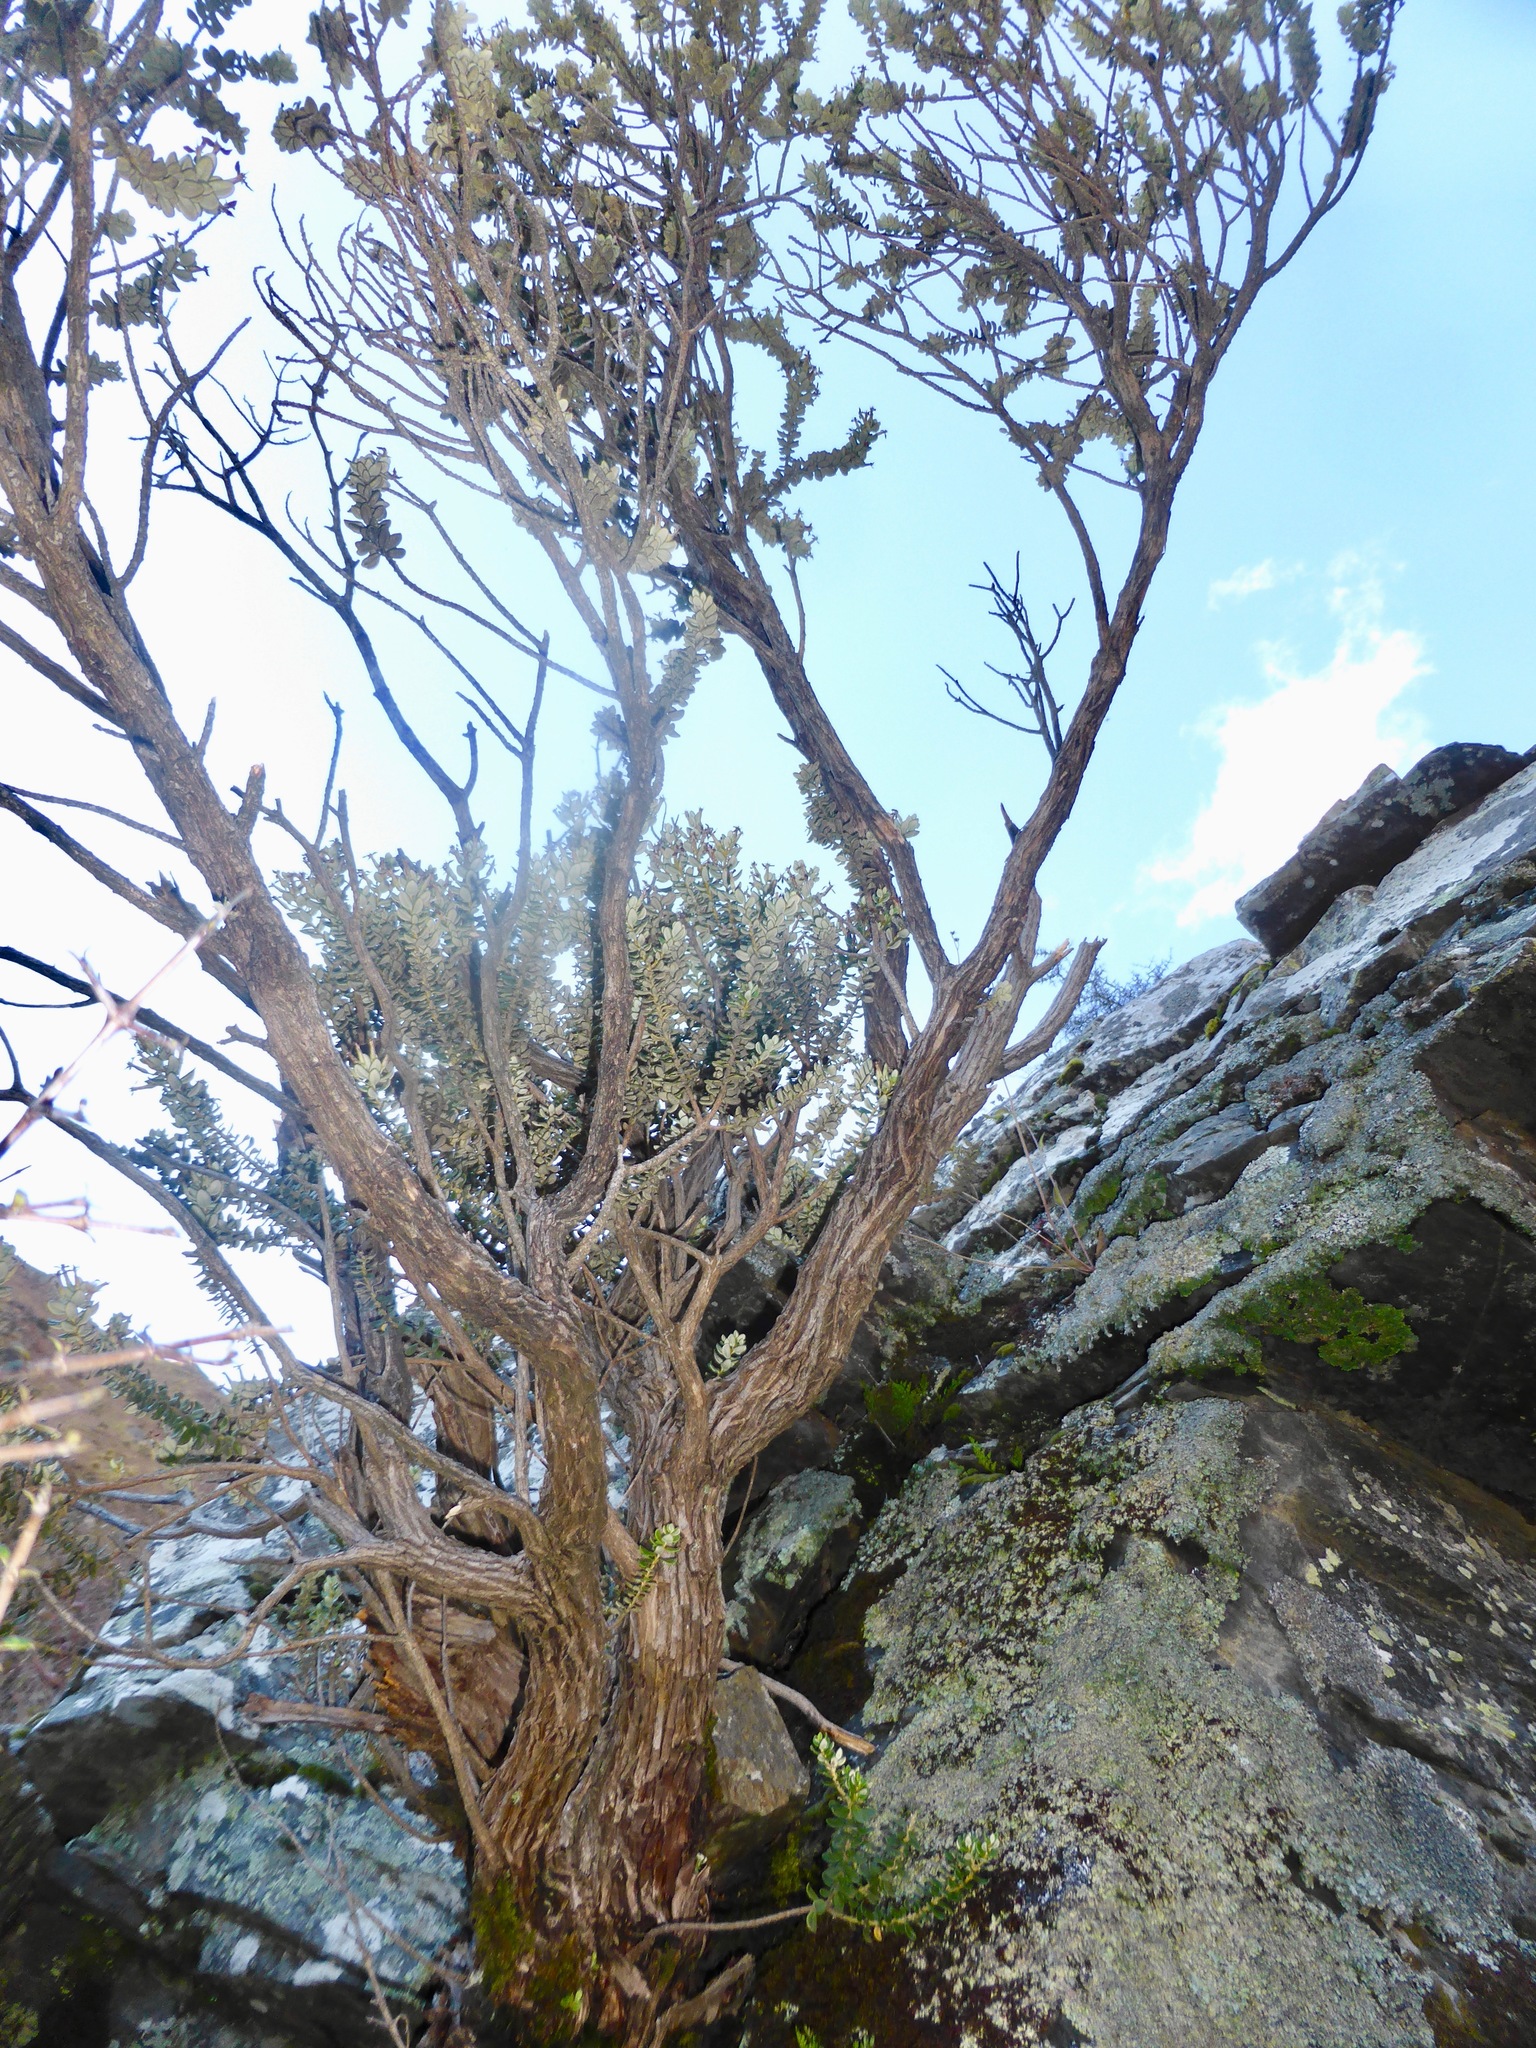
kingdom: Plantae
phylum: Tracheophyta
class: Magnoliopsida
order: Asterales
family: Asteraceae
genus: Olearia
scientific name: Olearia nummularifolia
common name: Sticky daisybush
